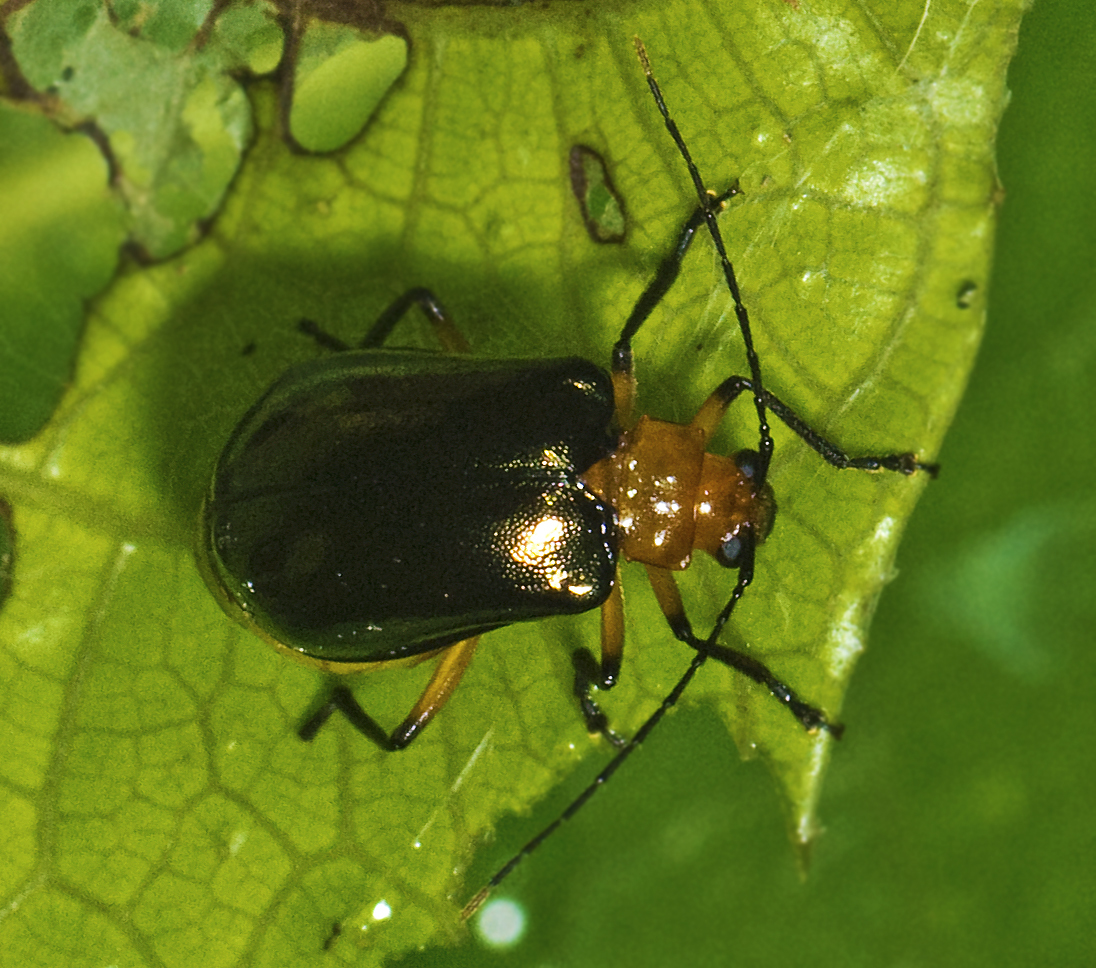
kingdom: Animalia
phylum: Arthropoda
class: Insecta
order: Coleoptera
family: Chrysomelidae
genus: Prasyptera
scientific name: Prasyptera
